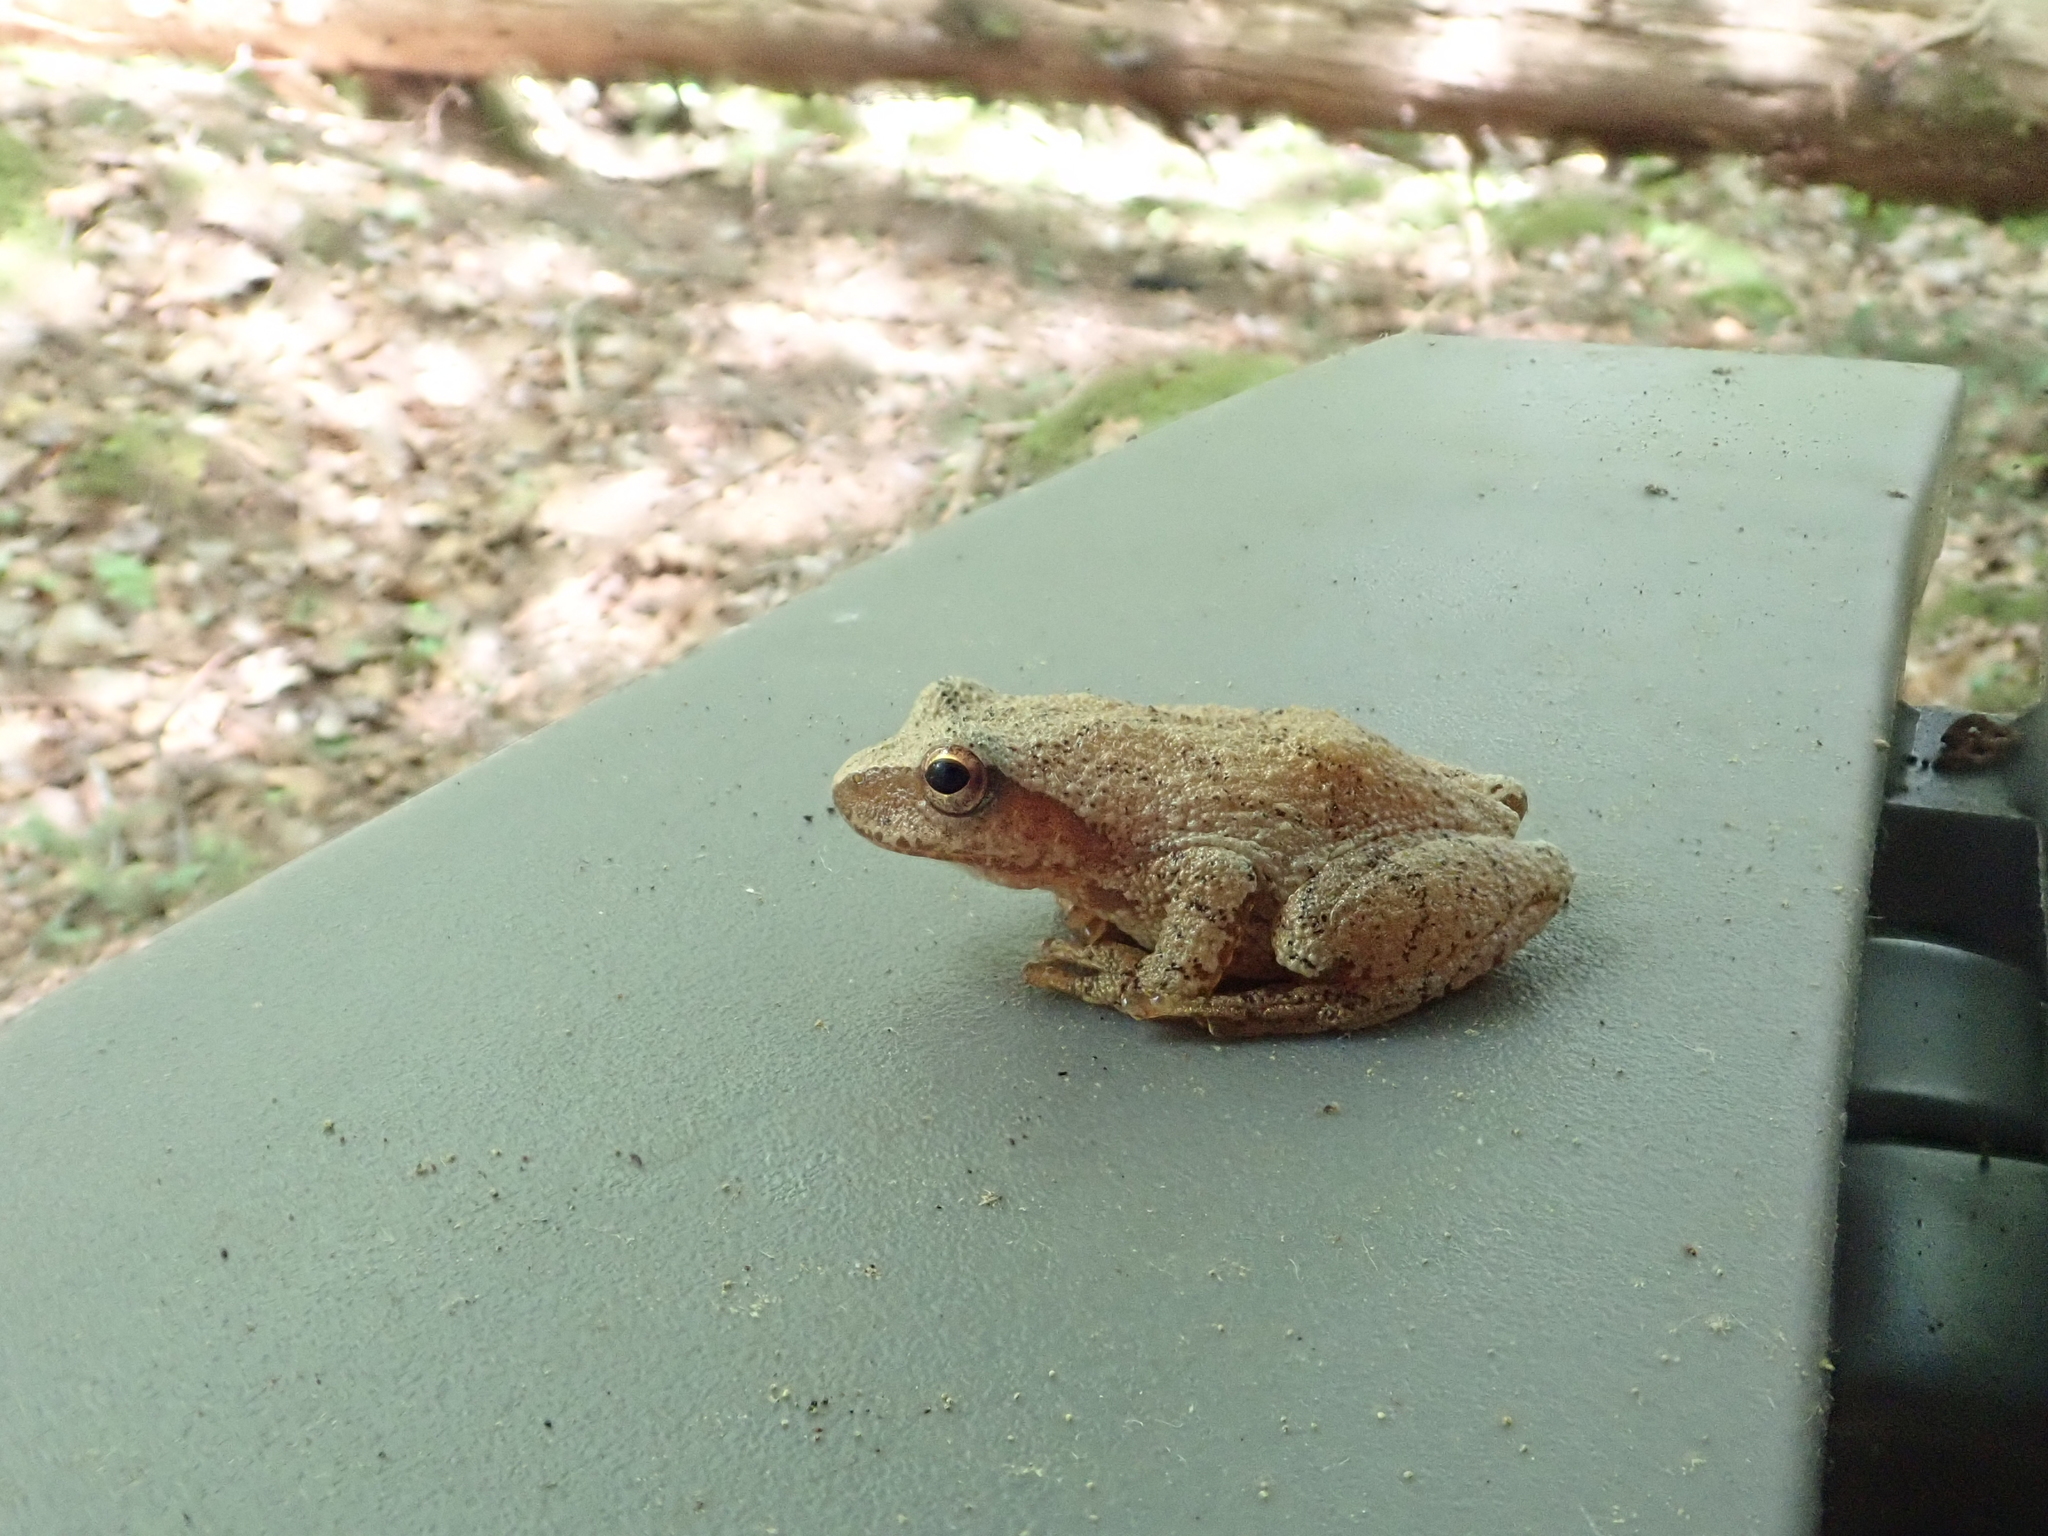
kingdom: Animalia
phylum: Chordata
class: Amphibia
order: Anura
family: Hylidae
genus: Pseudacris
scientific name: Pseudacris crucifer
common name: Spring peeper
